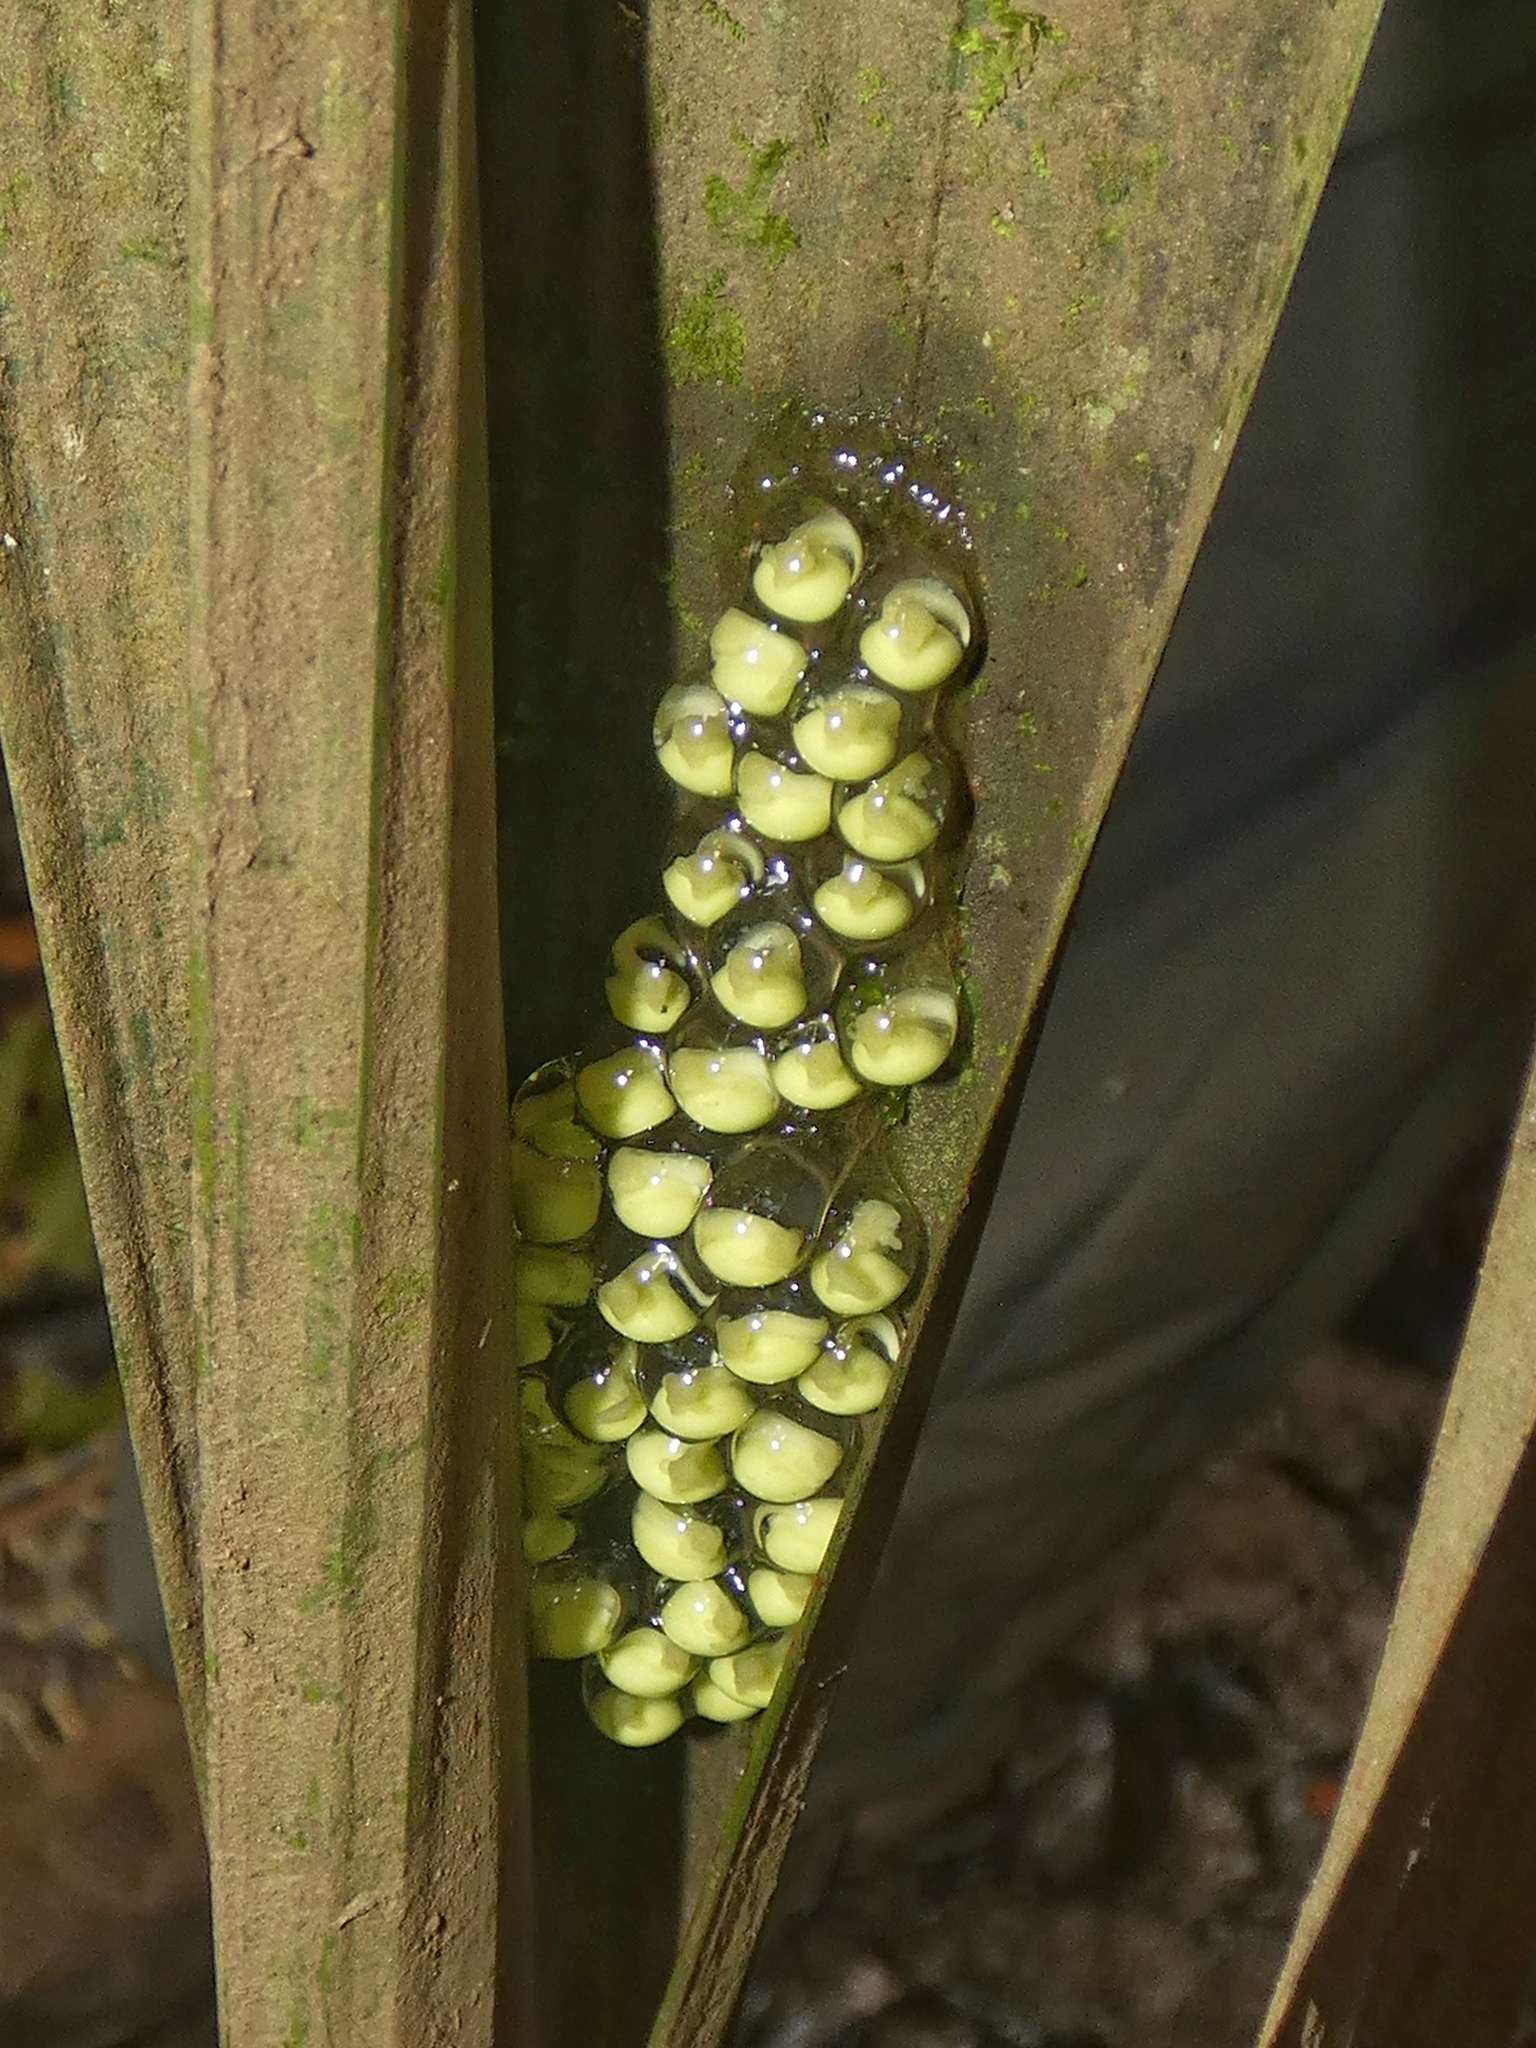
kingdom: Animalia
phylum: Chordata
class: Amphibia
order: Anura
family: Phyllomedusidae
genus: Agalychnis
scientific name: Agalychnis callidryas
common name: Red-eyed treefrog
